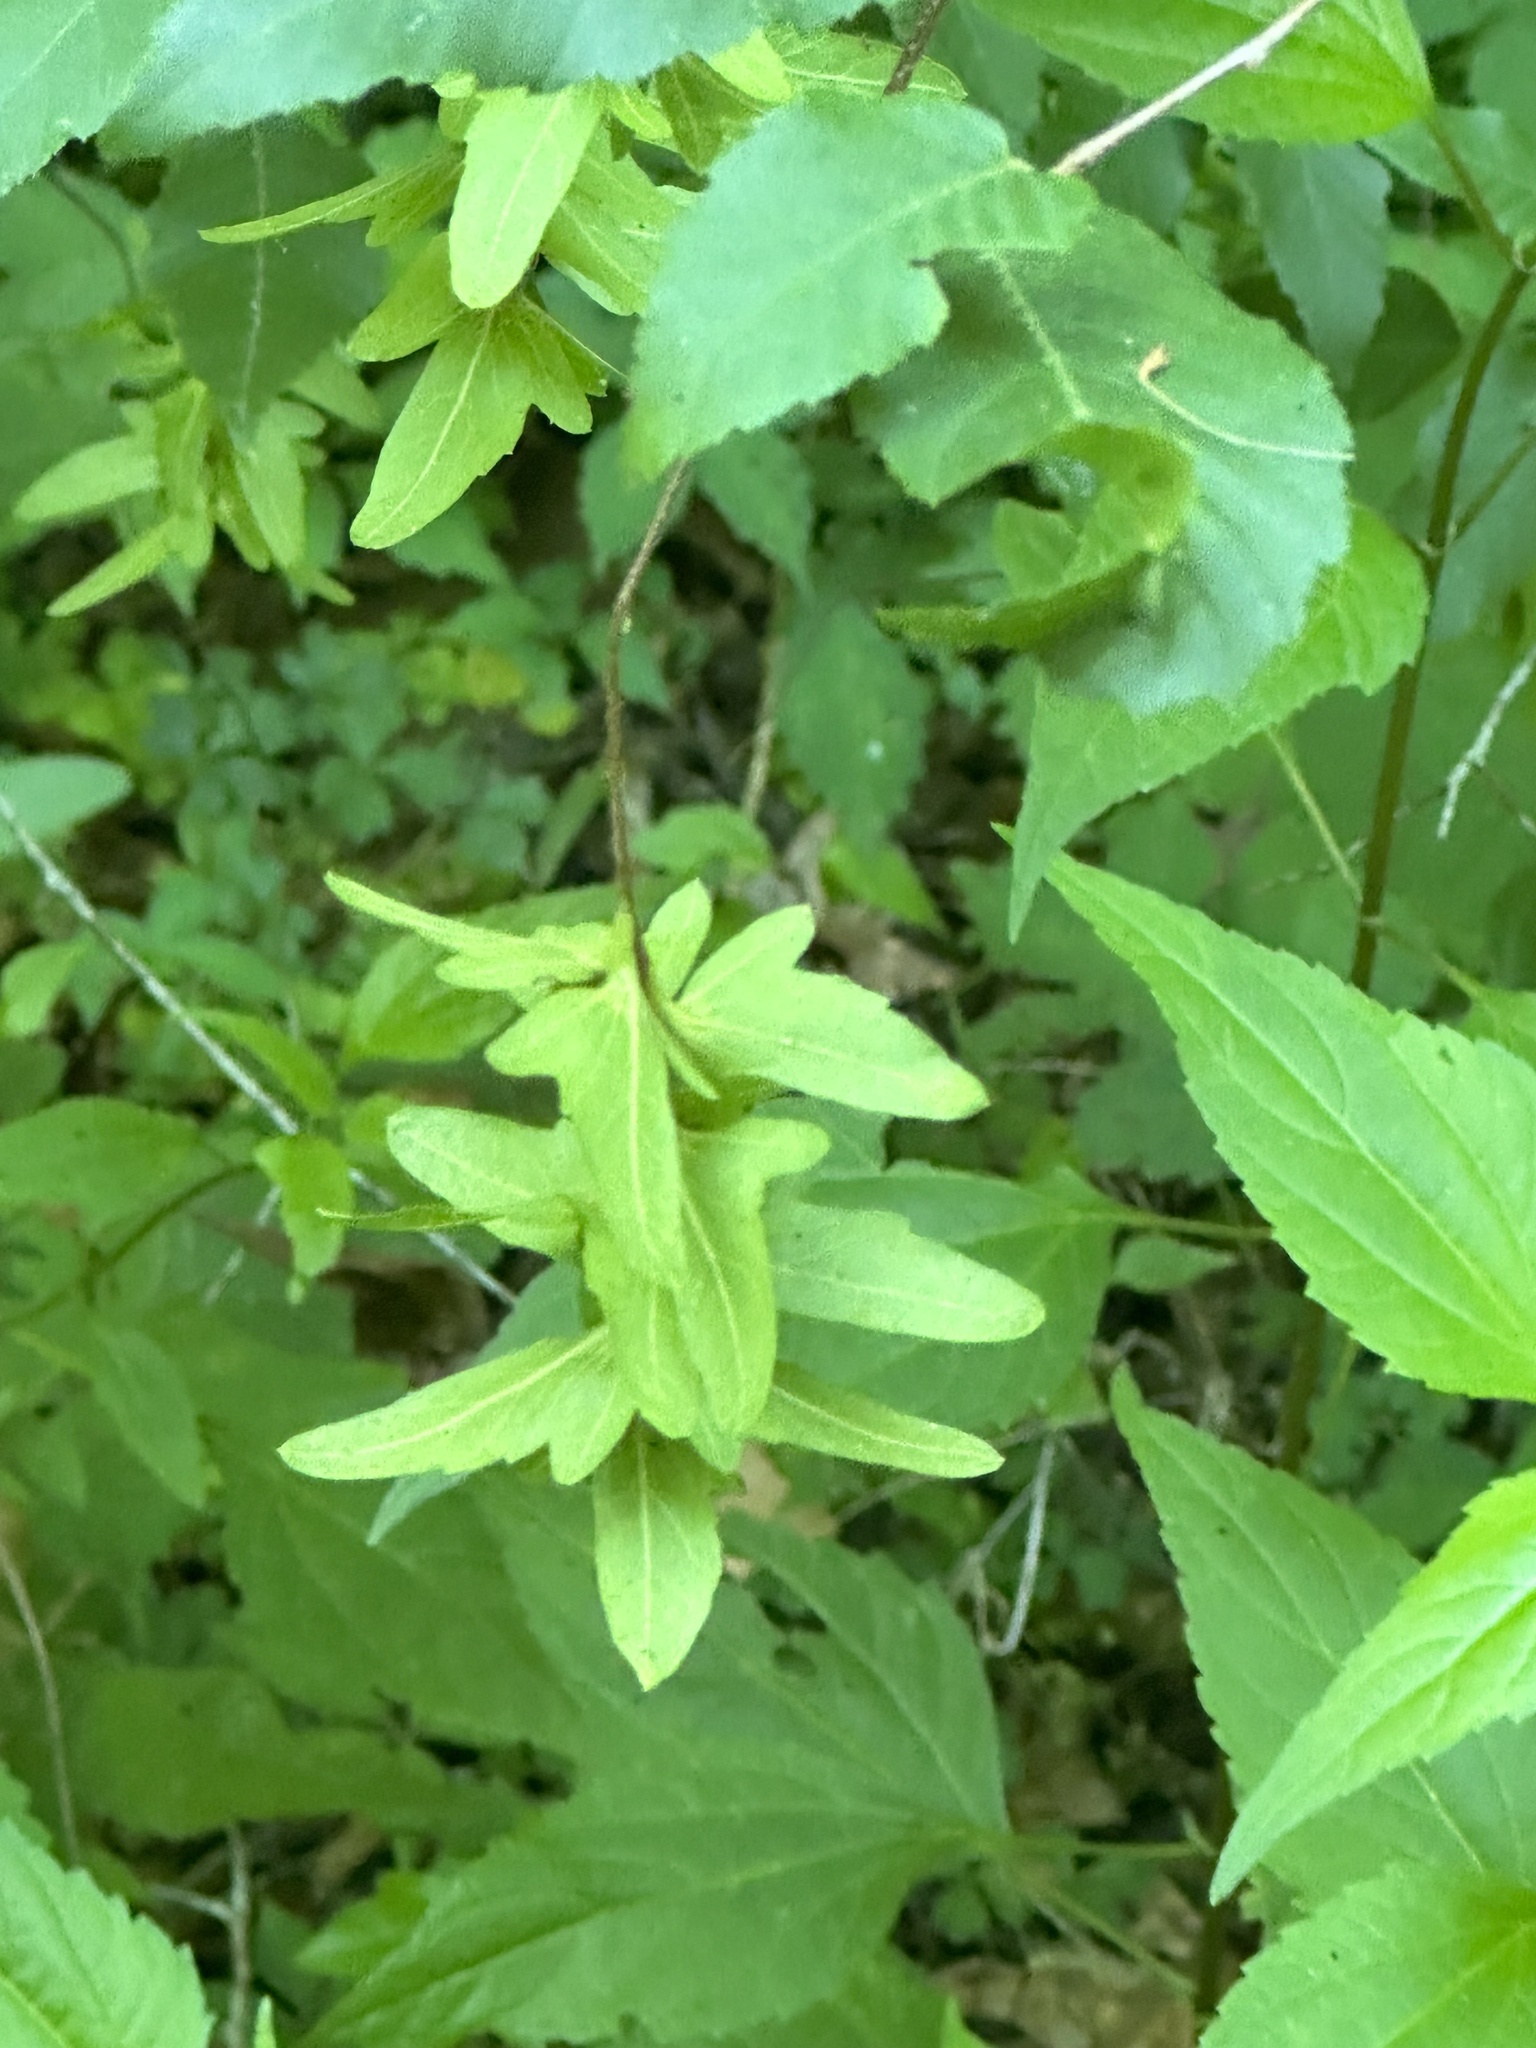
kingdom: Plantae
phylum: Tracheophyta
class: Magnoliopsida
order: Fagales
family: Betulaceae
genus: Carpinus
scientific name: Carpinus caroliniana
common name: American hornbeam
